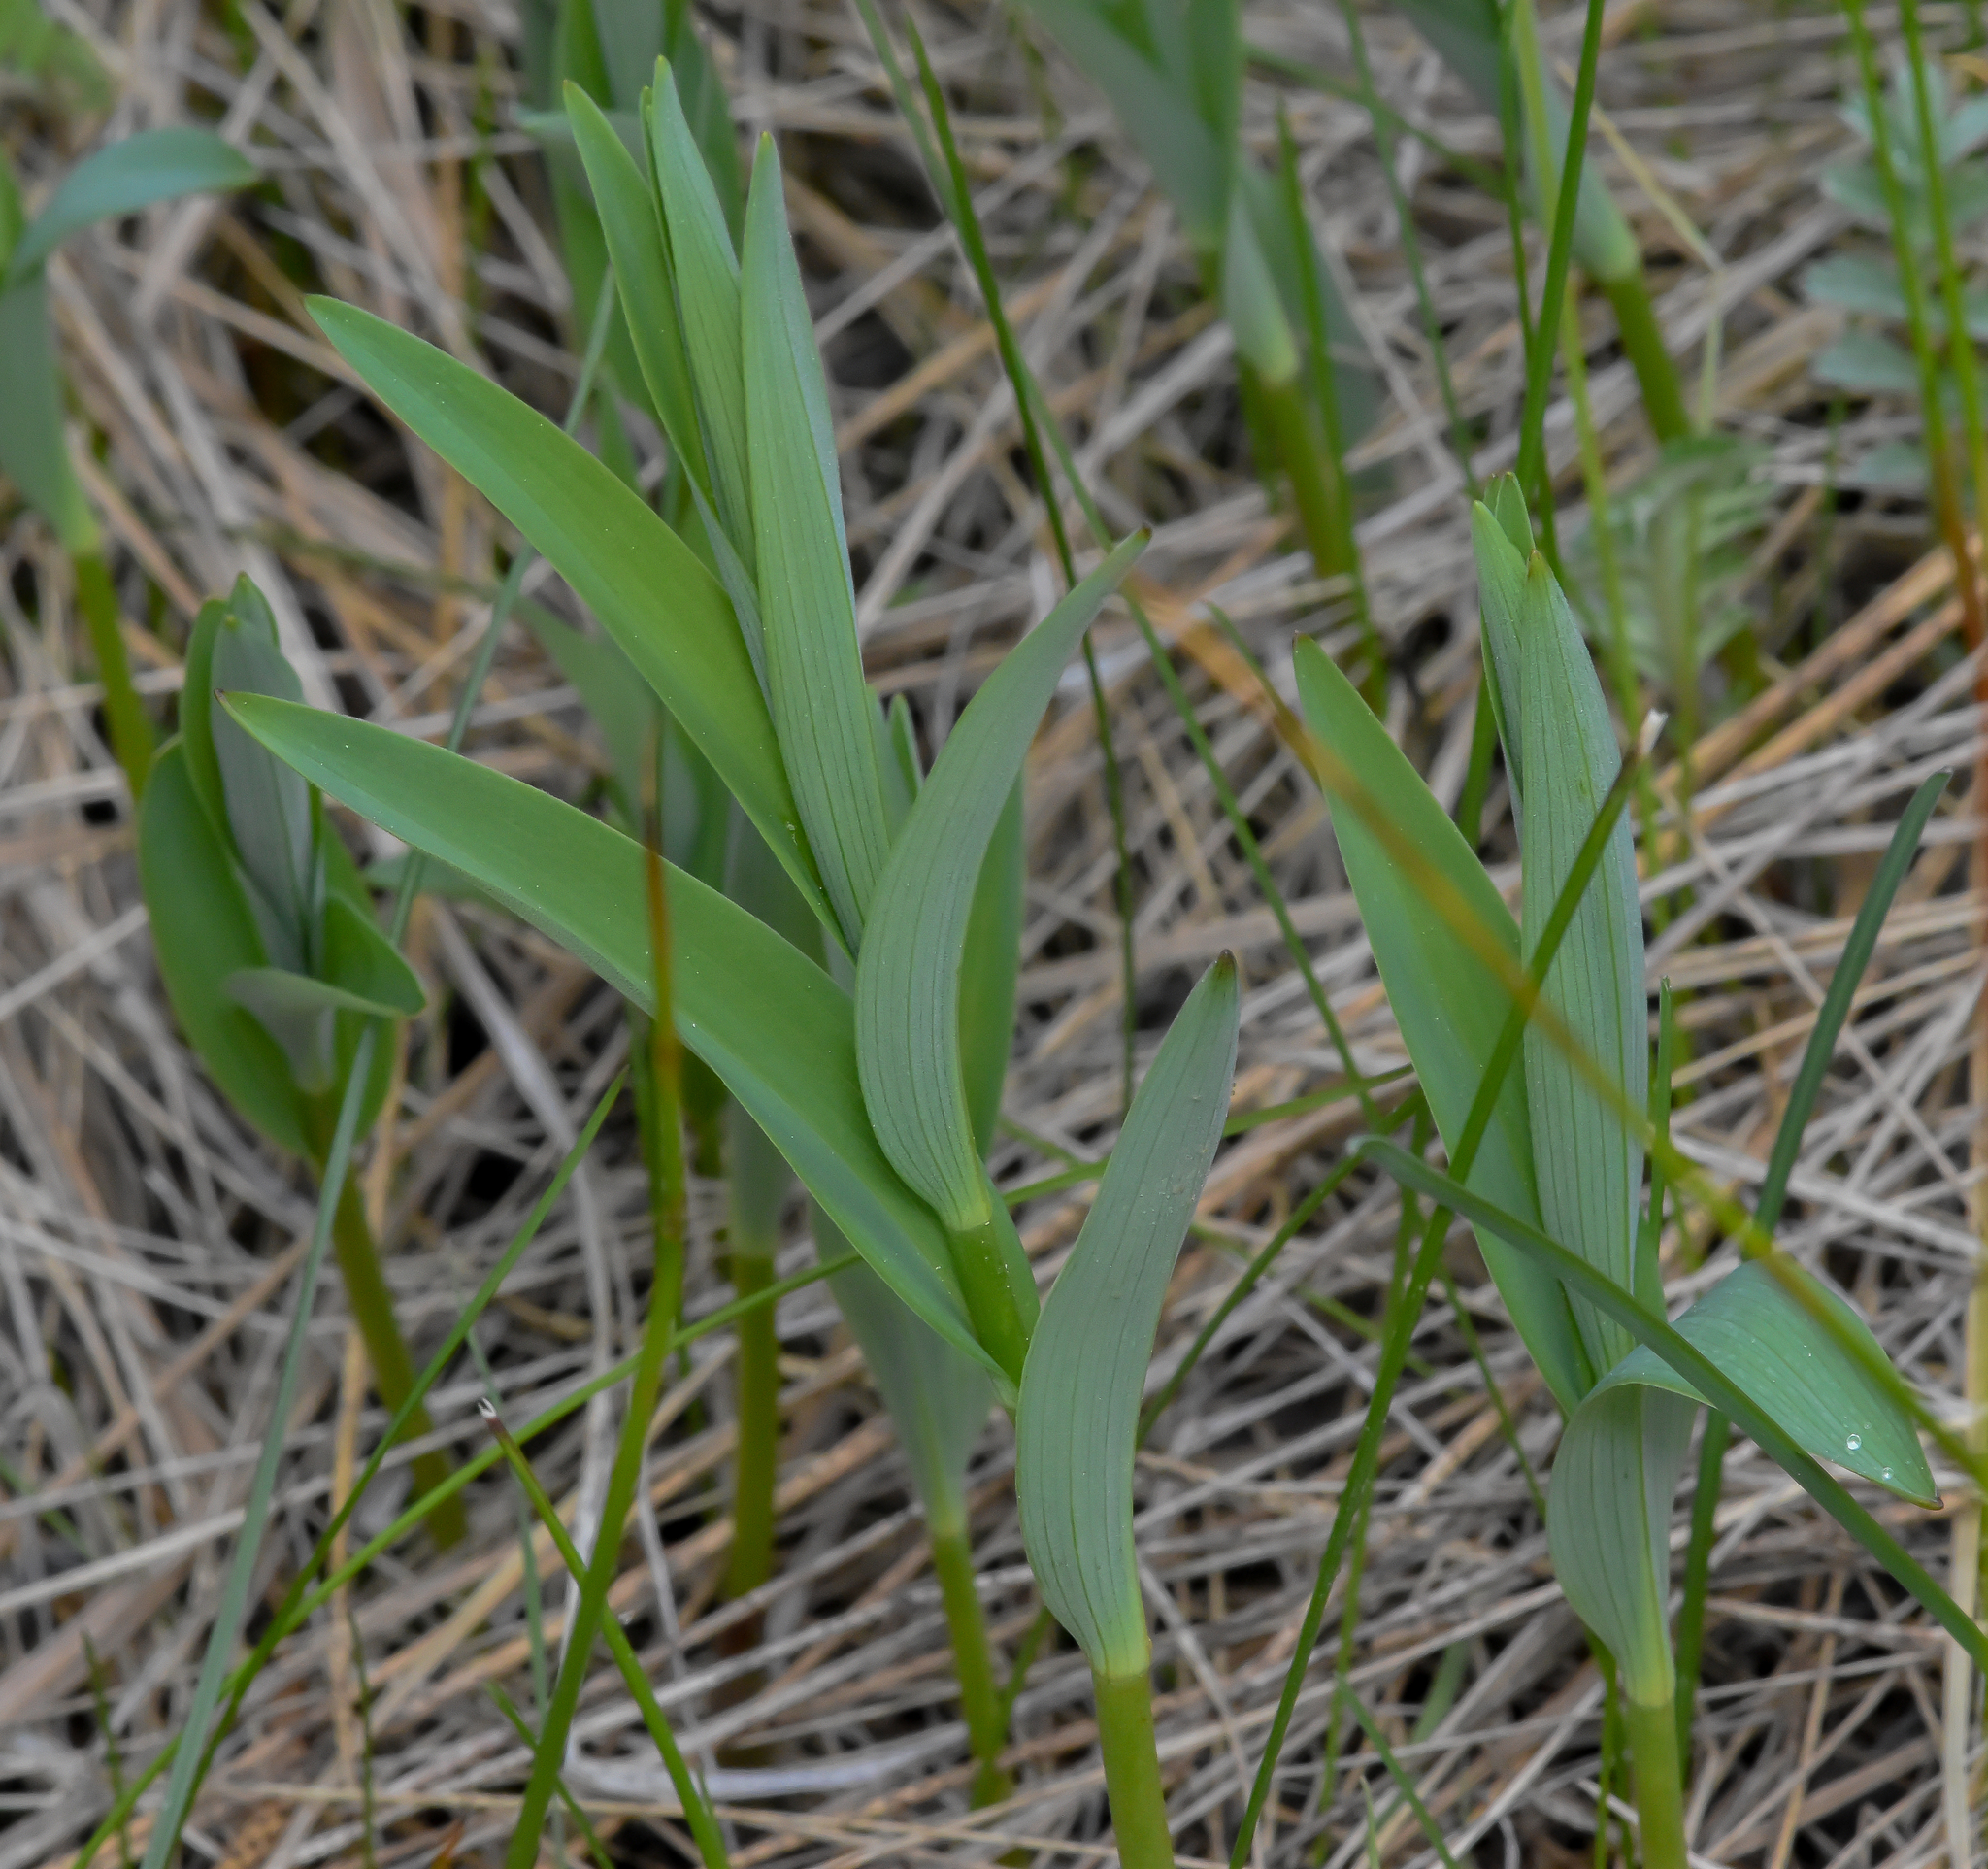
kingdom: Plantae
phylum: Tracheophyta
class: Liliopsida
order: Asparagales
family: Asparagaceae
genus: Maianthemum
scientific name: Maianthemum stellatum
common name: Little false solomon's seal
